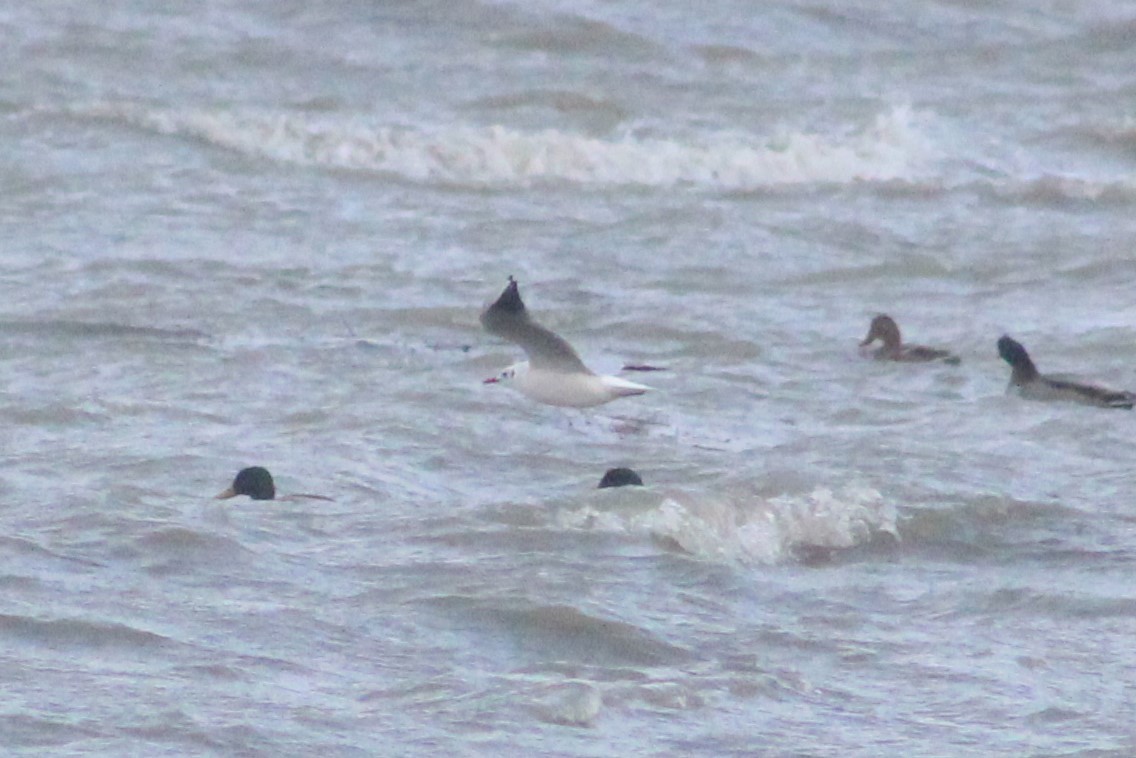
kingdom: Animalia
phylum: Chordata
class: Aves
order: Charadriiformes
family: Laridae
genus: Chroicocephalus
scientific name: Chroicocephalus ridibundus
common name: Black-headed gull
